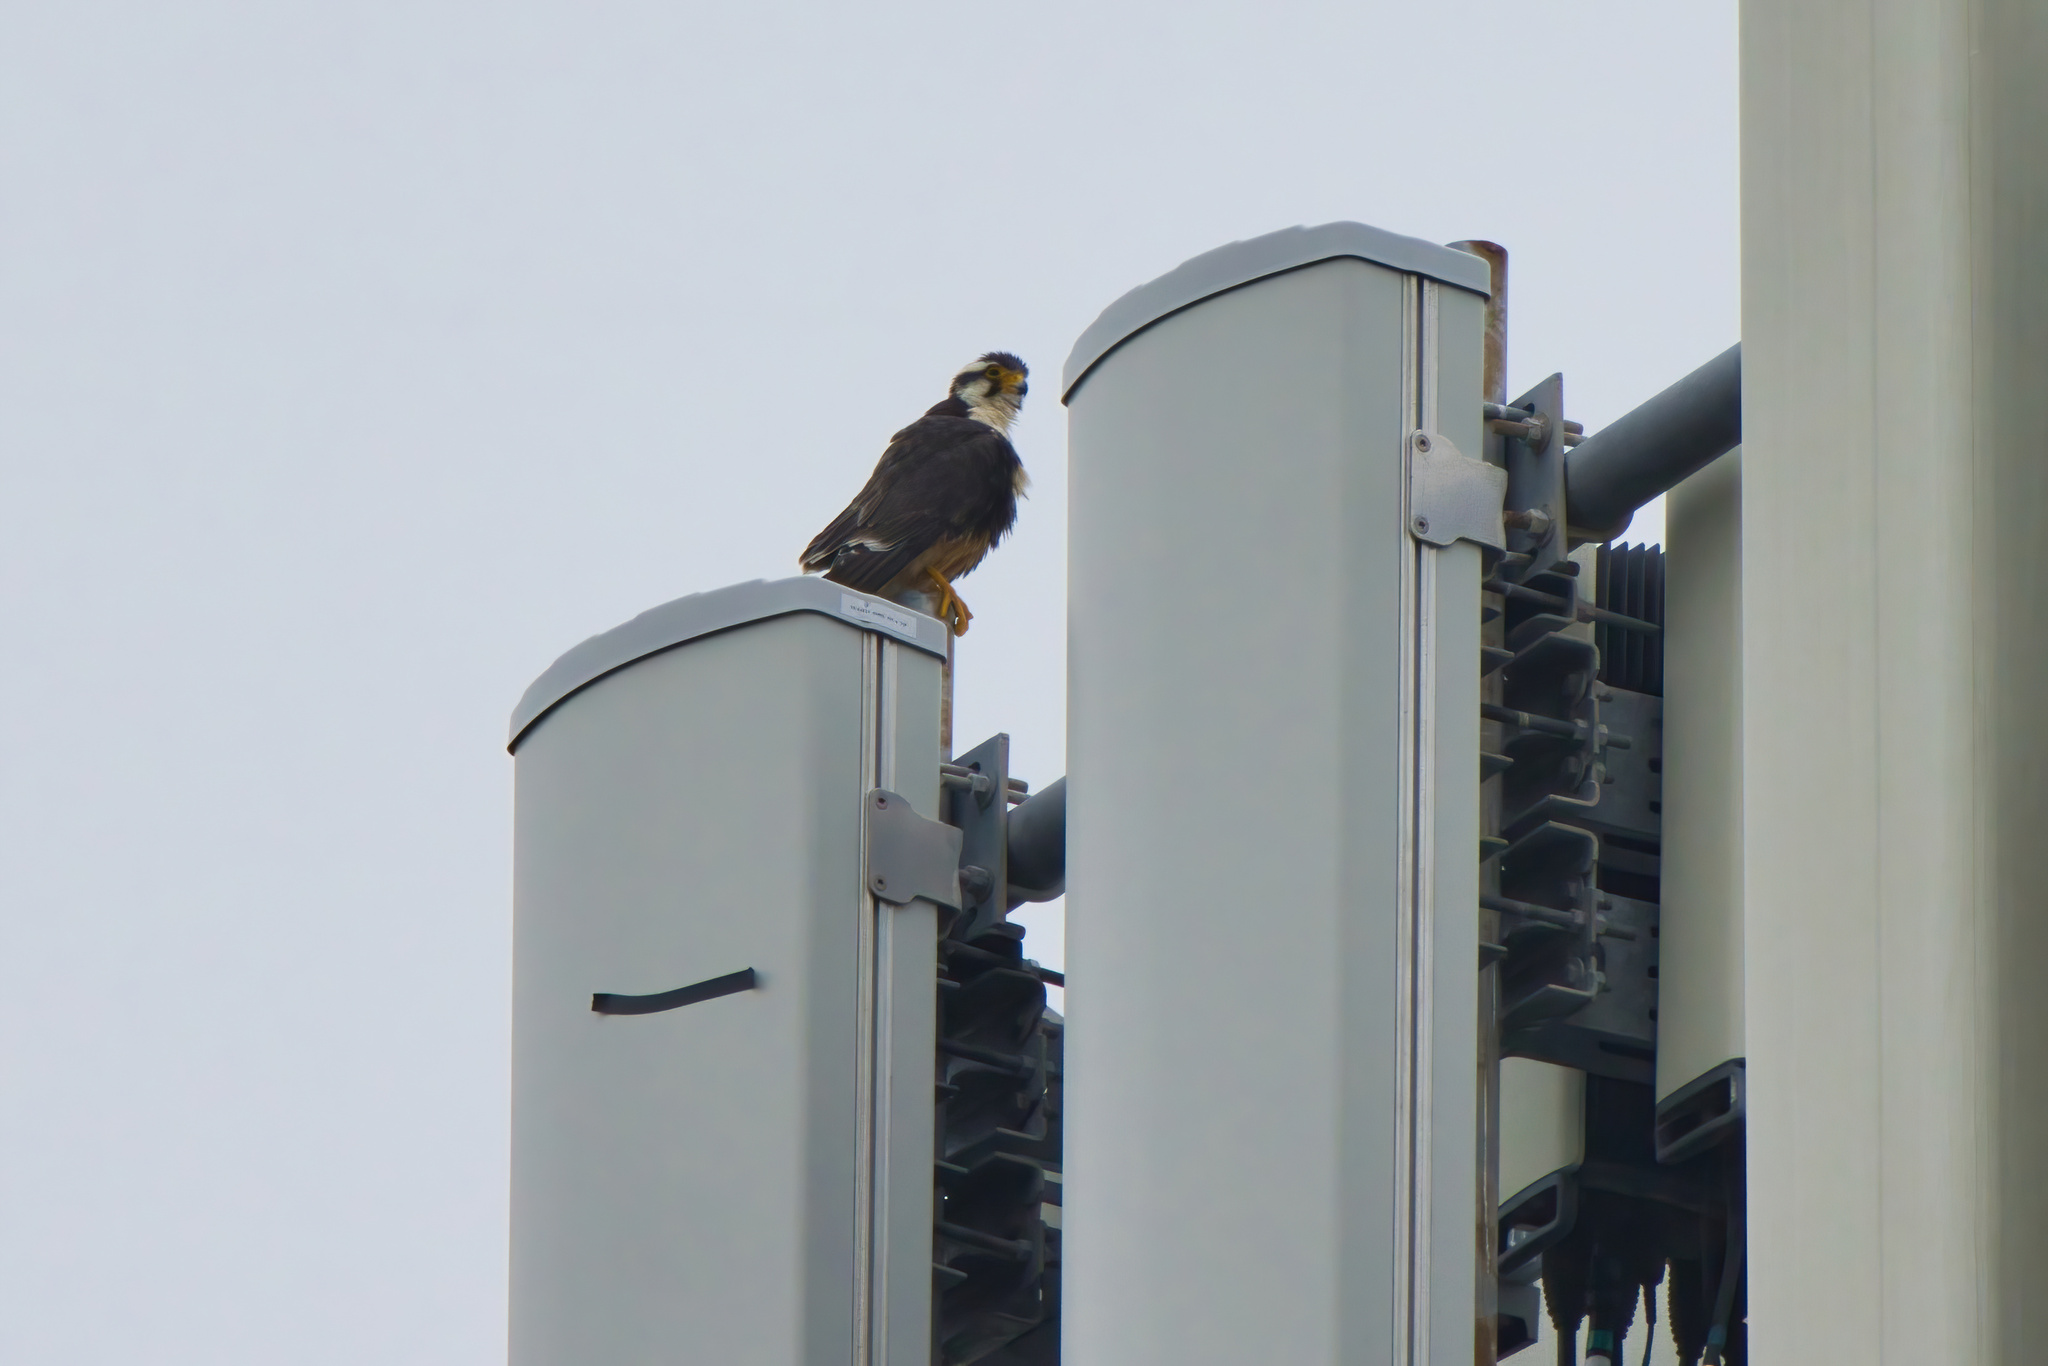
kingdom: Animalia
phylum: Chordata
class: Aves
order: Falconiformes
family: Falconidae
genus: Falco
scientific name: Falco femoralis
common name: Aplomado falcon
